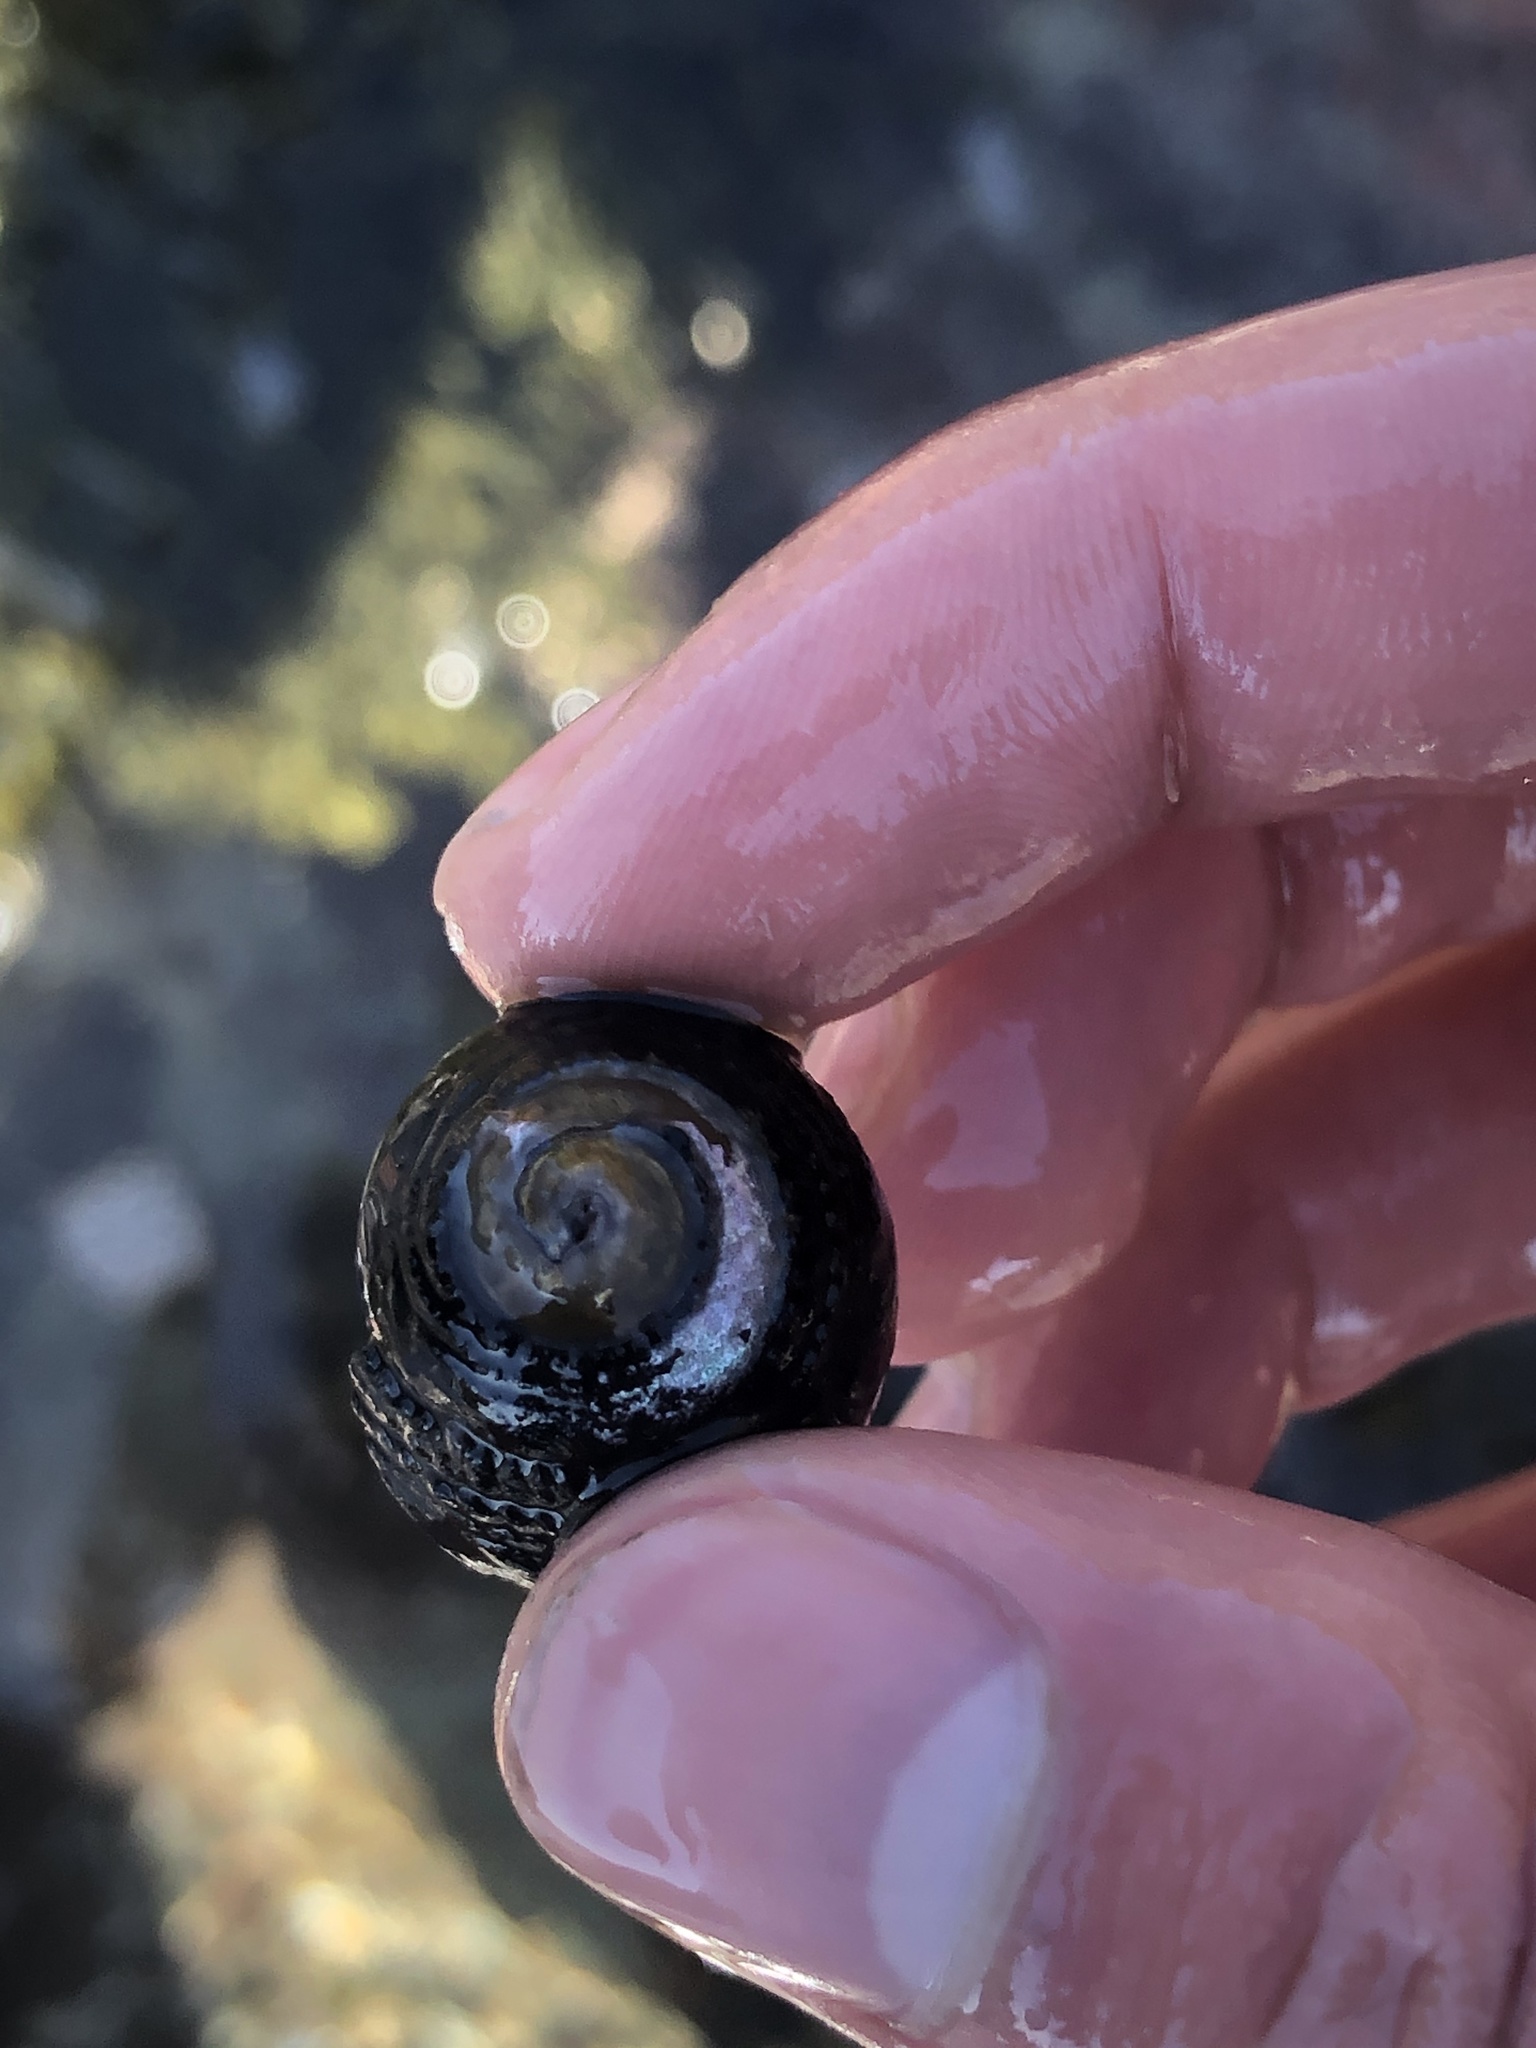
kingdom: Animalia
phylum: Mollusca
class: Gastropoda
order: Trochida
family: Tegulidae
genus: Tegula
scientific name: Tegula funebralis
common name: Black tegula
